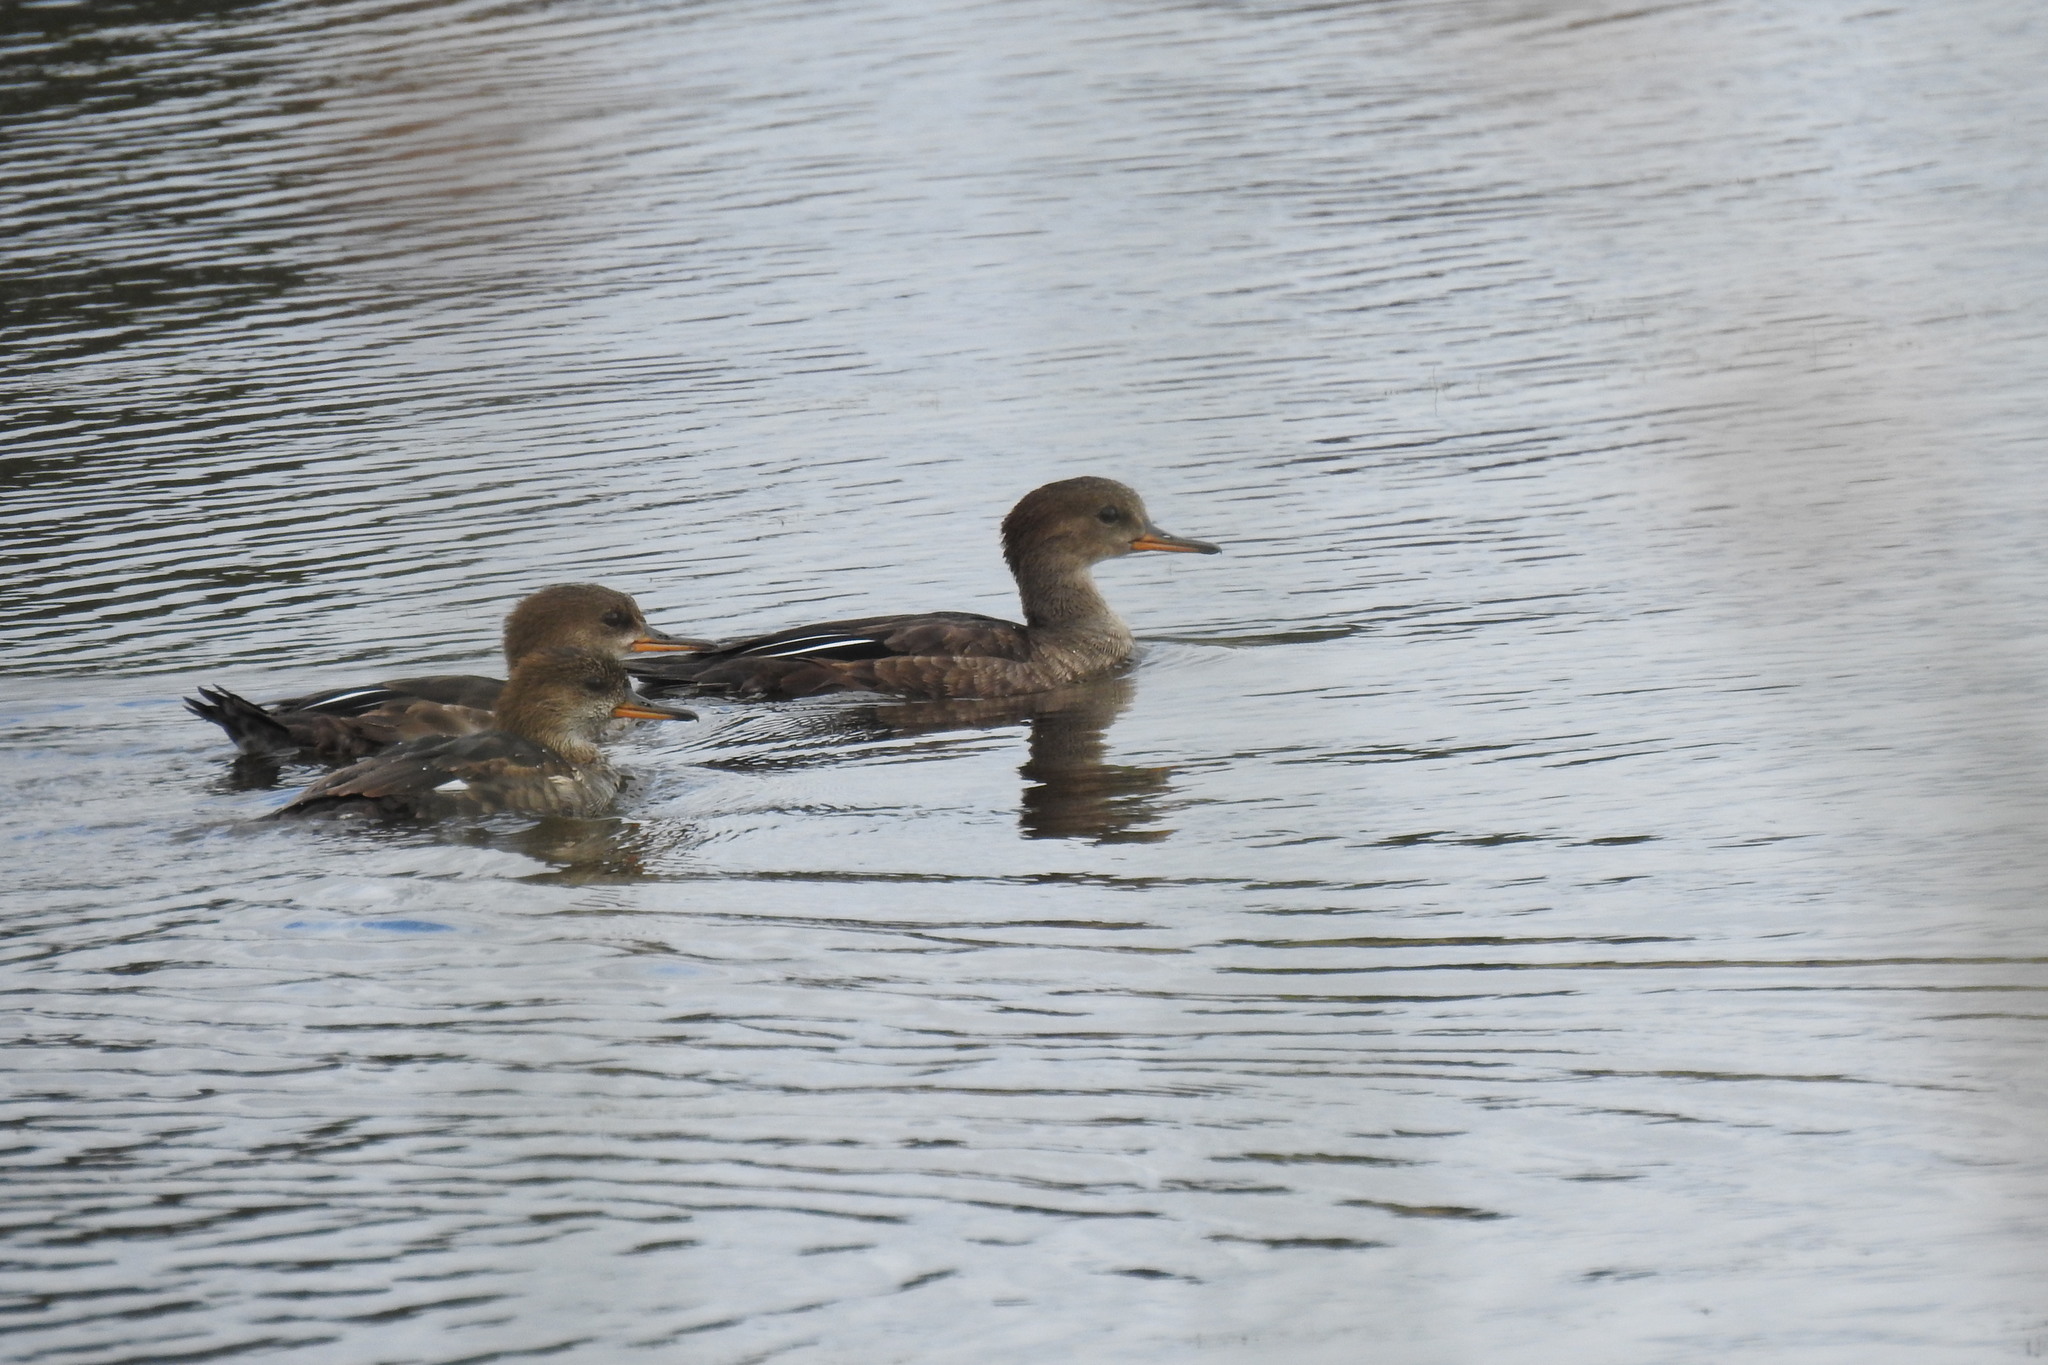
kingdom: Animalia
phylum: Chordata
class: Aves
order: Anseriformes
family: Anatidae
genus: Lophodytes
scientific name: Lophodytes cucullatus
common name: Hooded merganser
